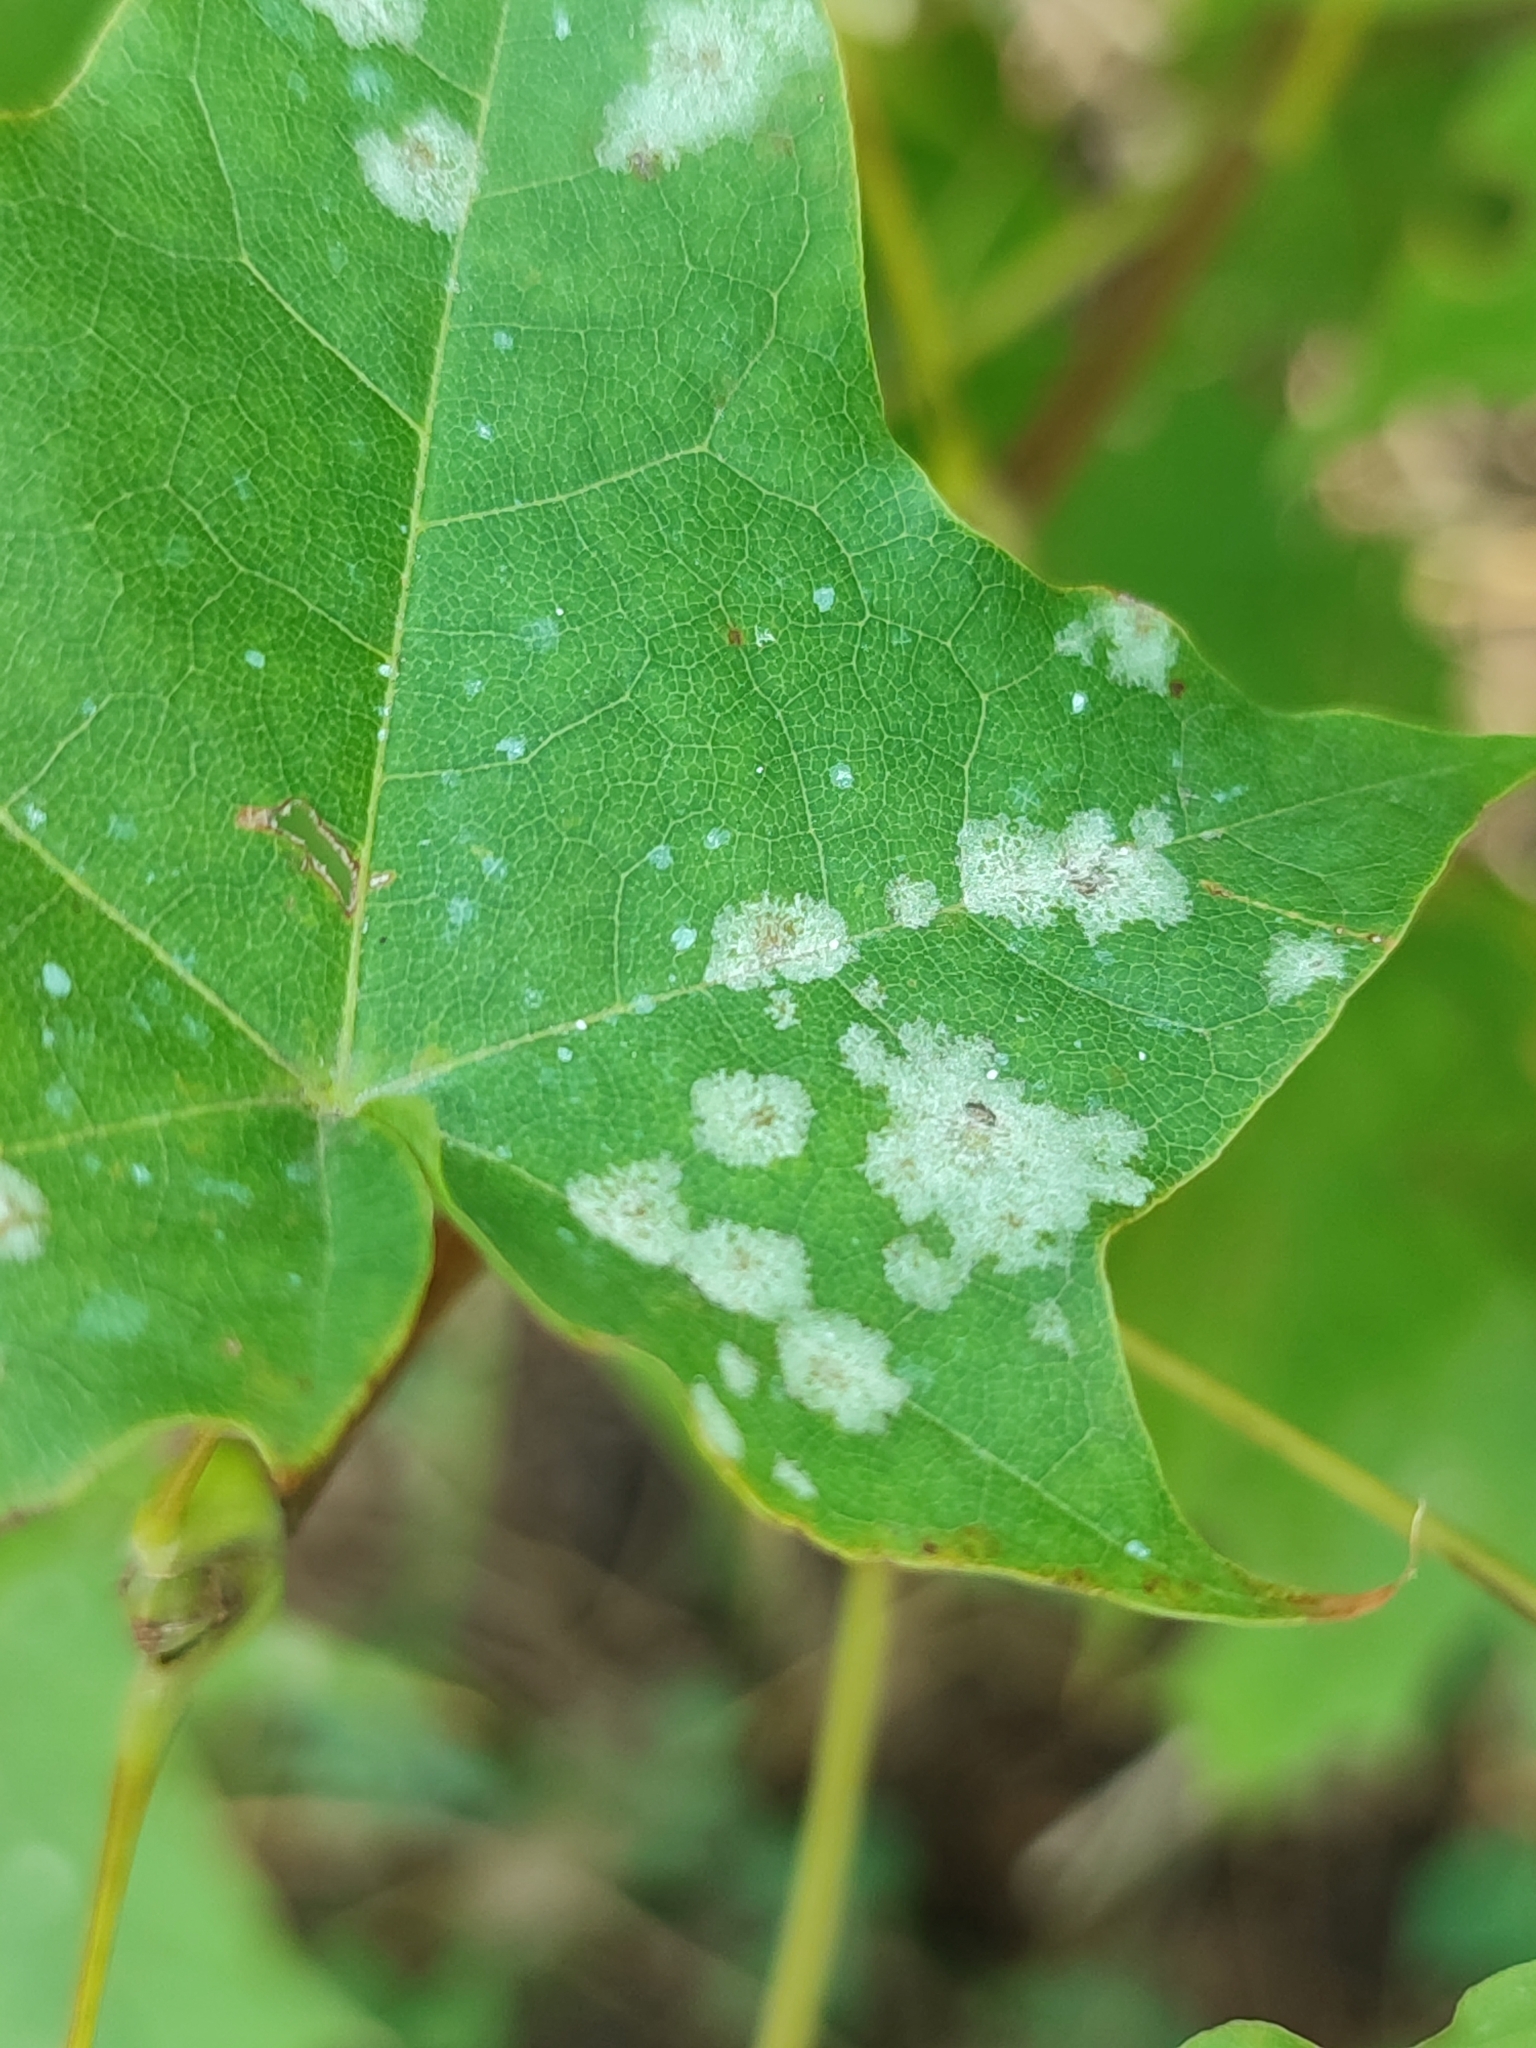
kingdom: Fungi
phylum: Ascomycota
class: Leotiomycetes
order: Helotiales
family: Erysiphaceae
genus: Sawadaea
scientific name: Sawadaea tulasnei
